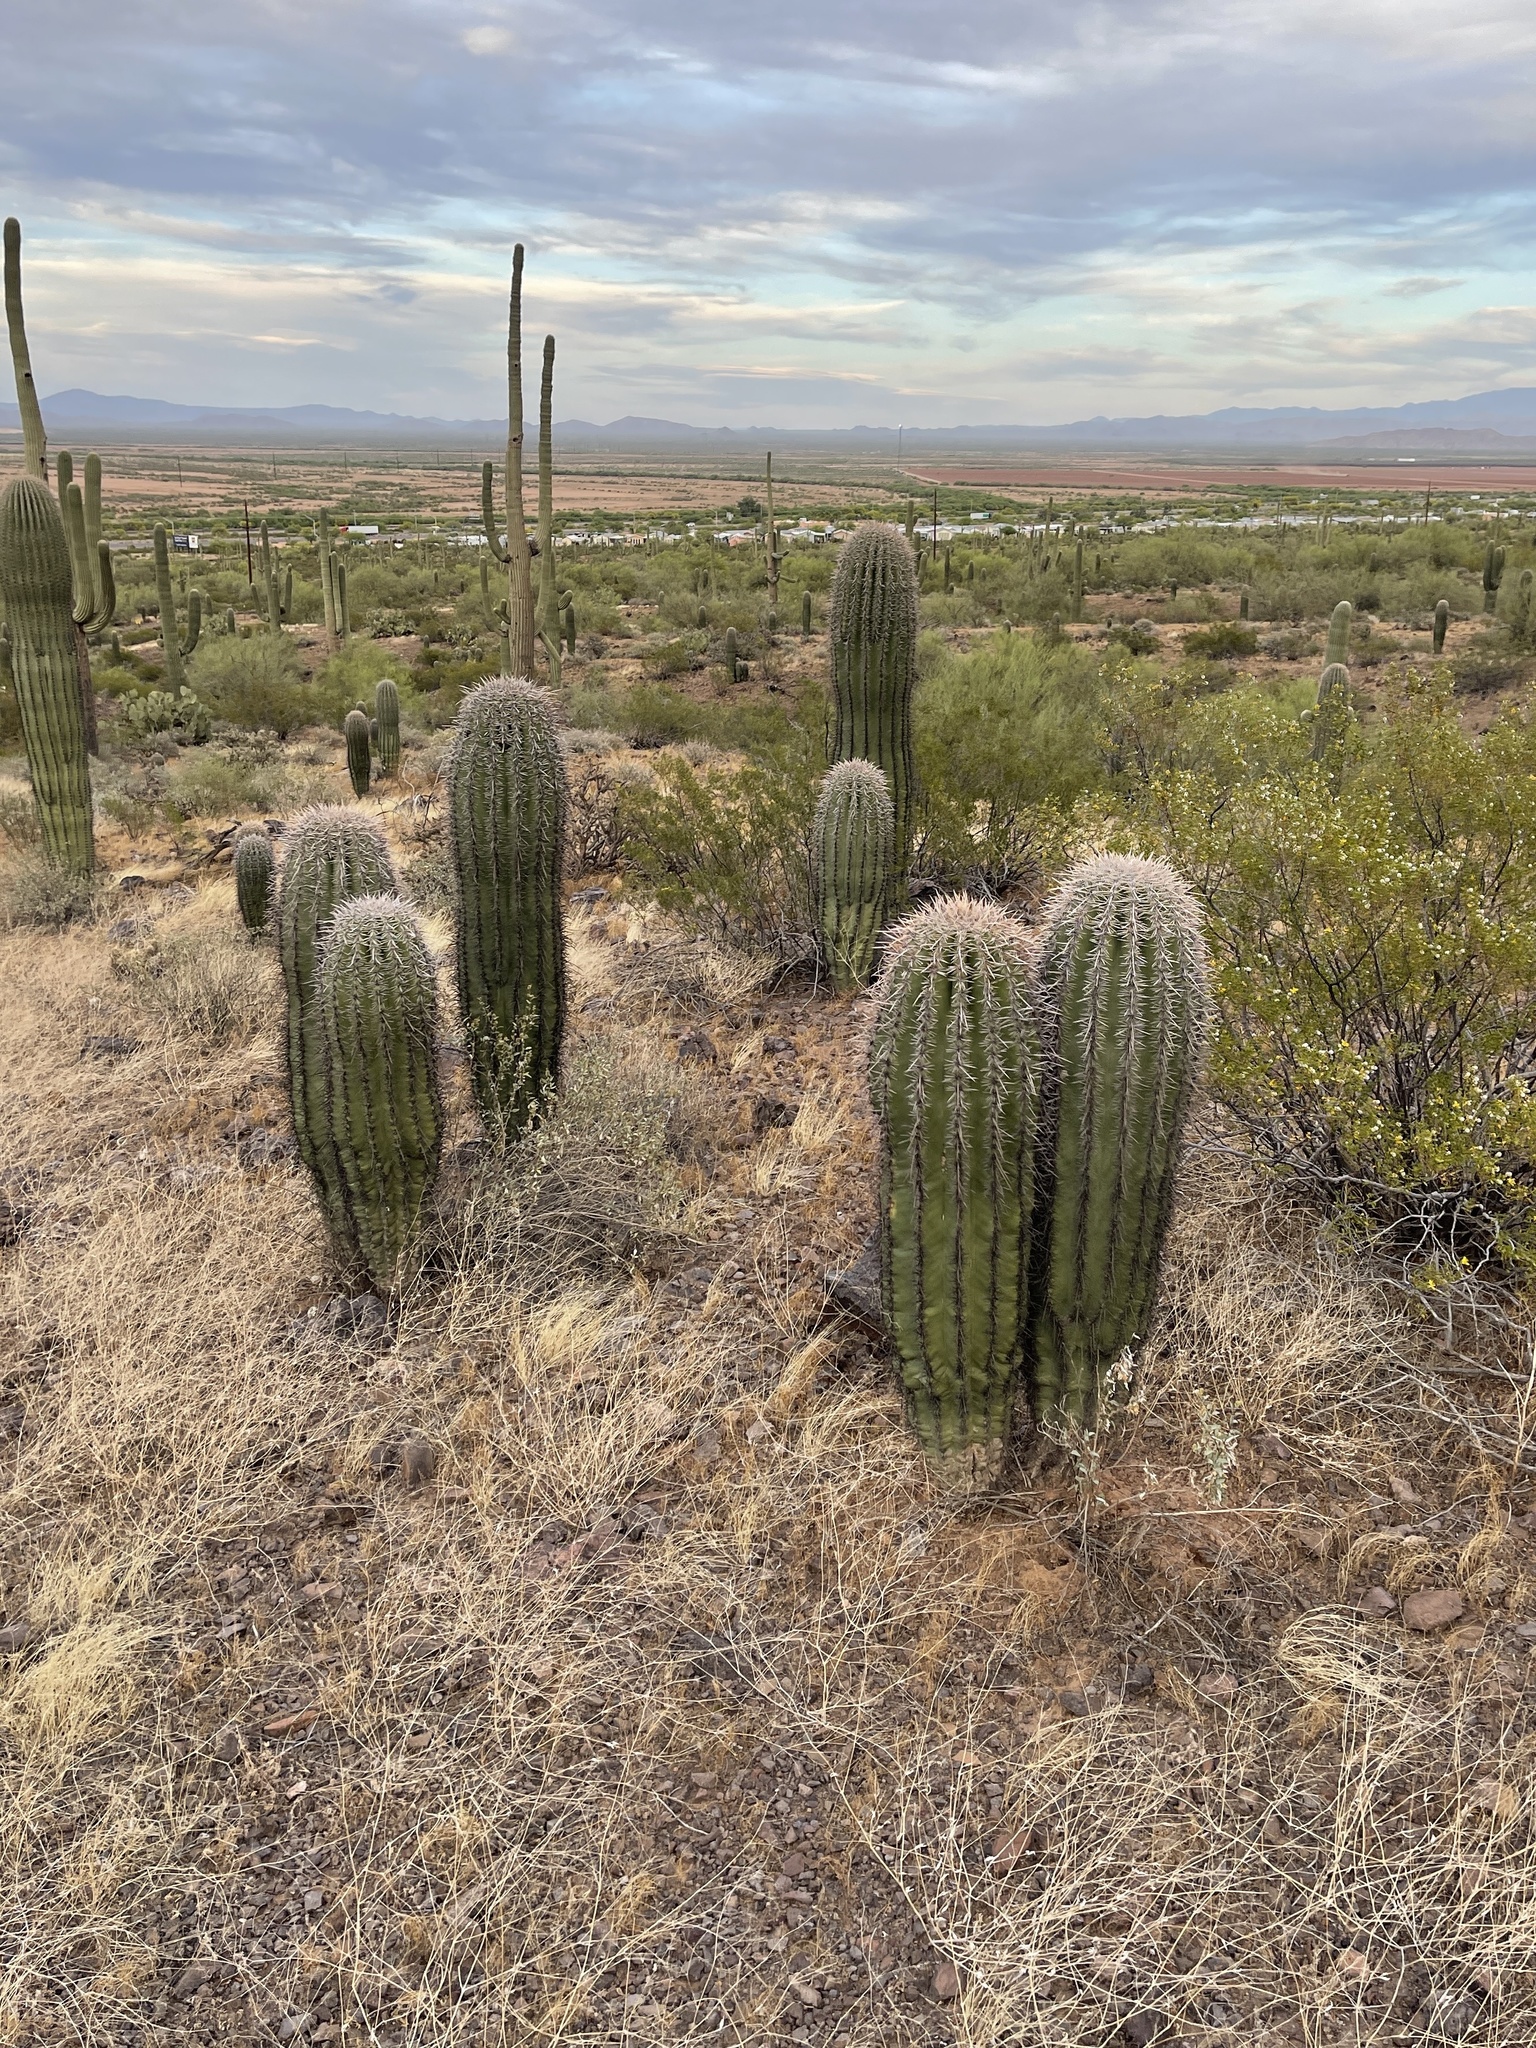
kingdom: Plantae
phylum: Tracheophyta
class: Magnoliopsida
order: Caryophyllales
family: Cactaceae
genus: Carnegiea
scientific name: Carnegiea gigantea
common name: Saguaro
